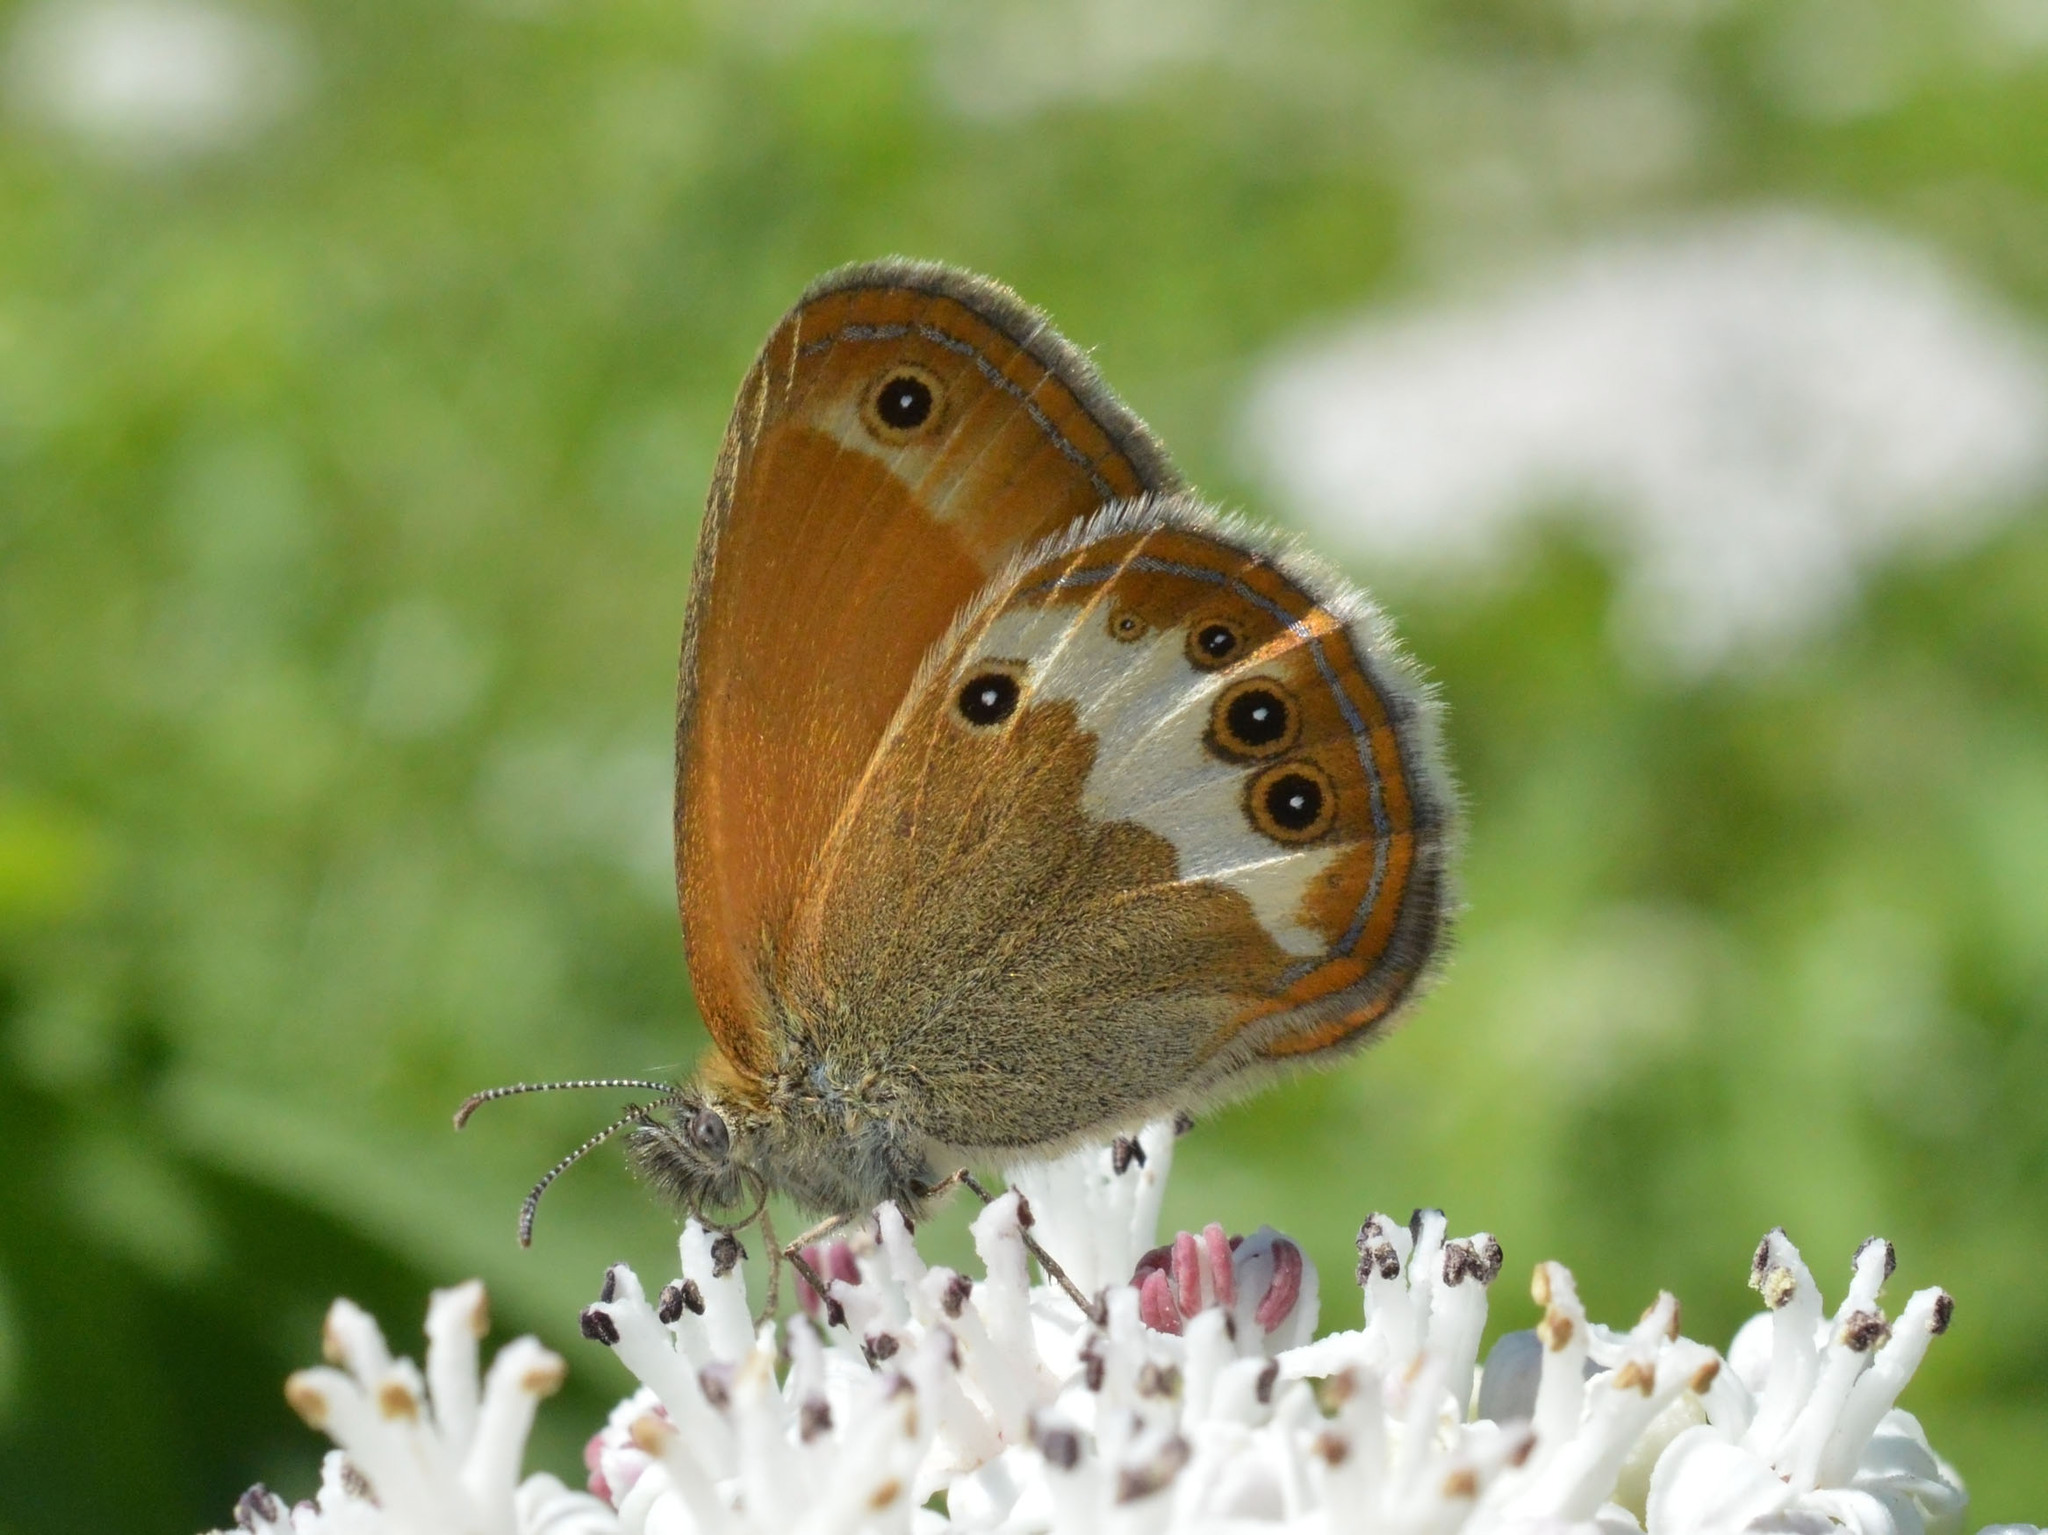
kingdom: Animalia
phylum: Arthropoda
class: Insecta
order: Lepidoptera
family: Nymphalidae
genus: Coenonympha
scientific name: Coenonympha arcania
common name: Pearly heath
